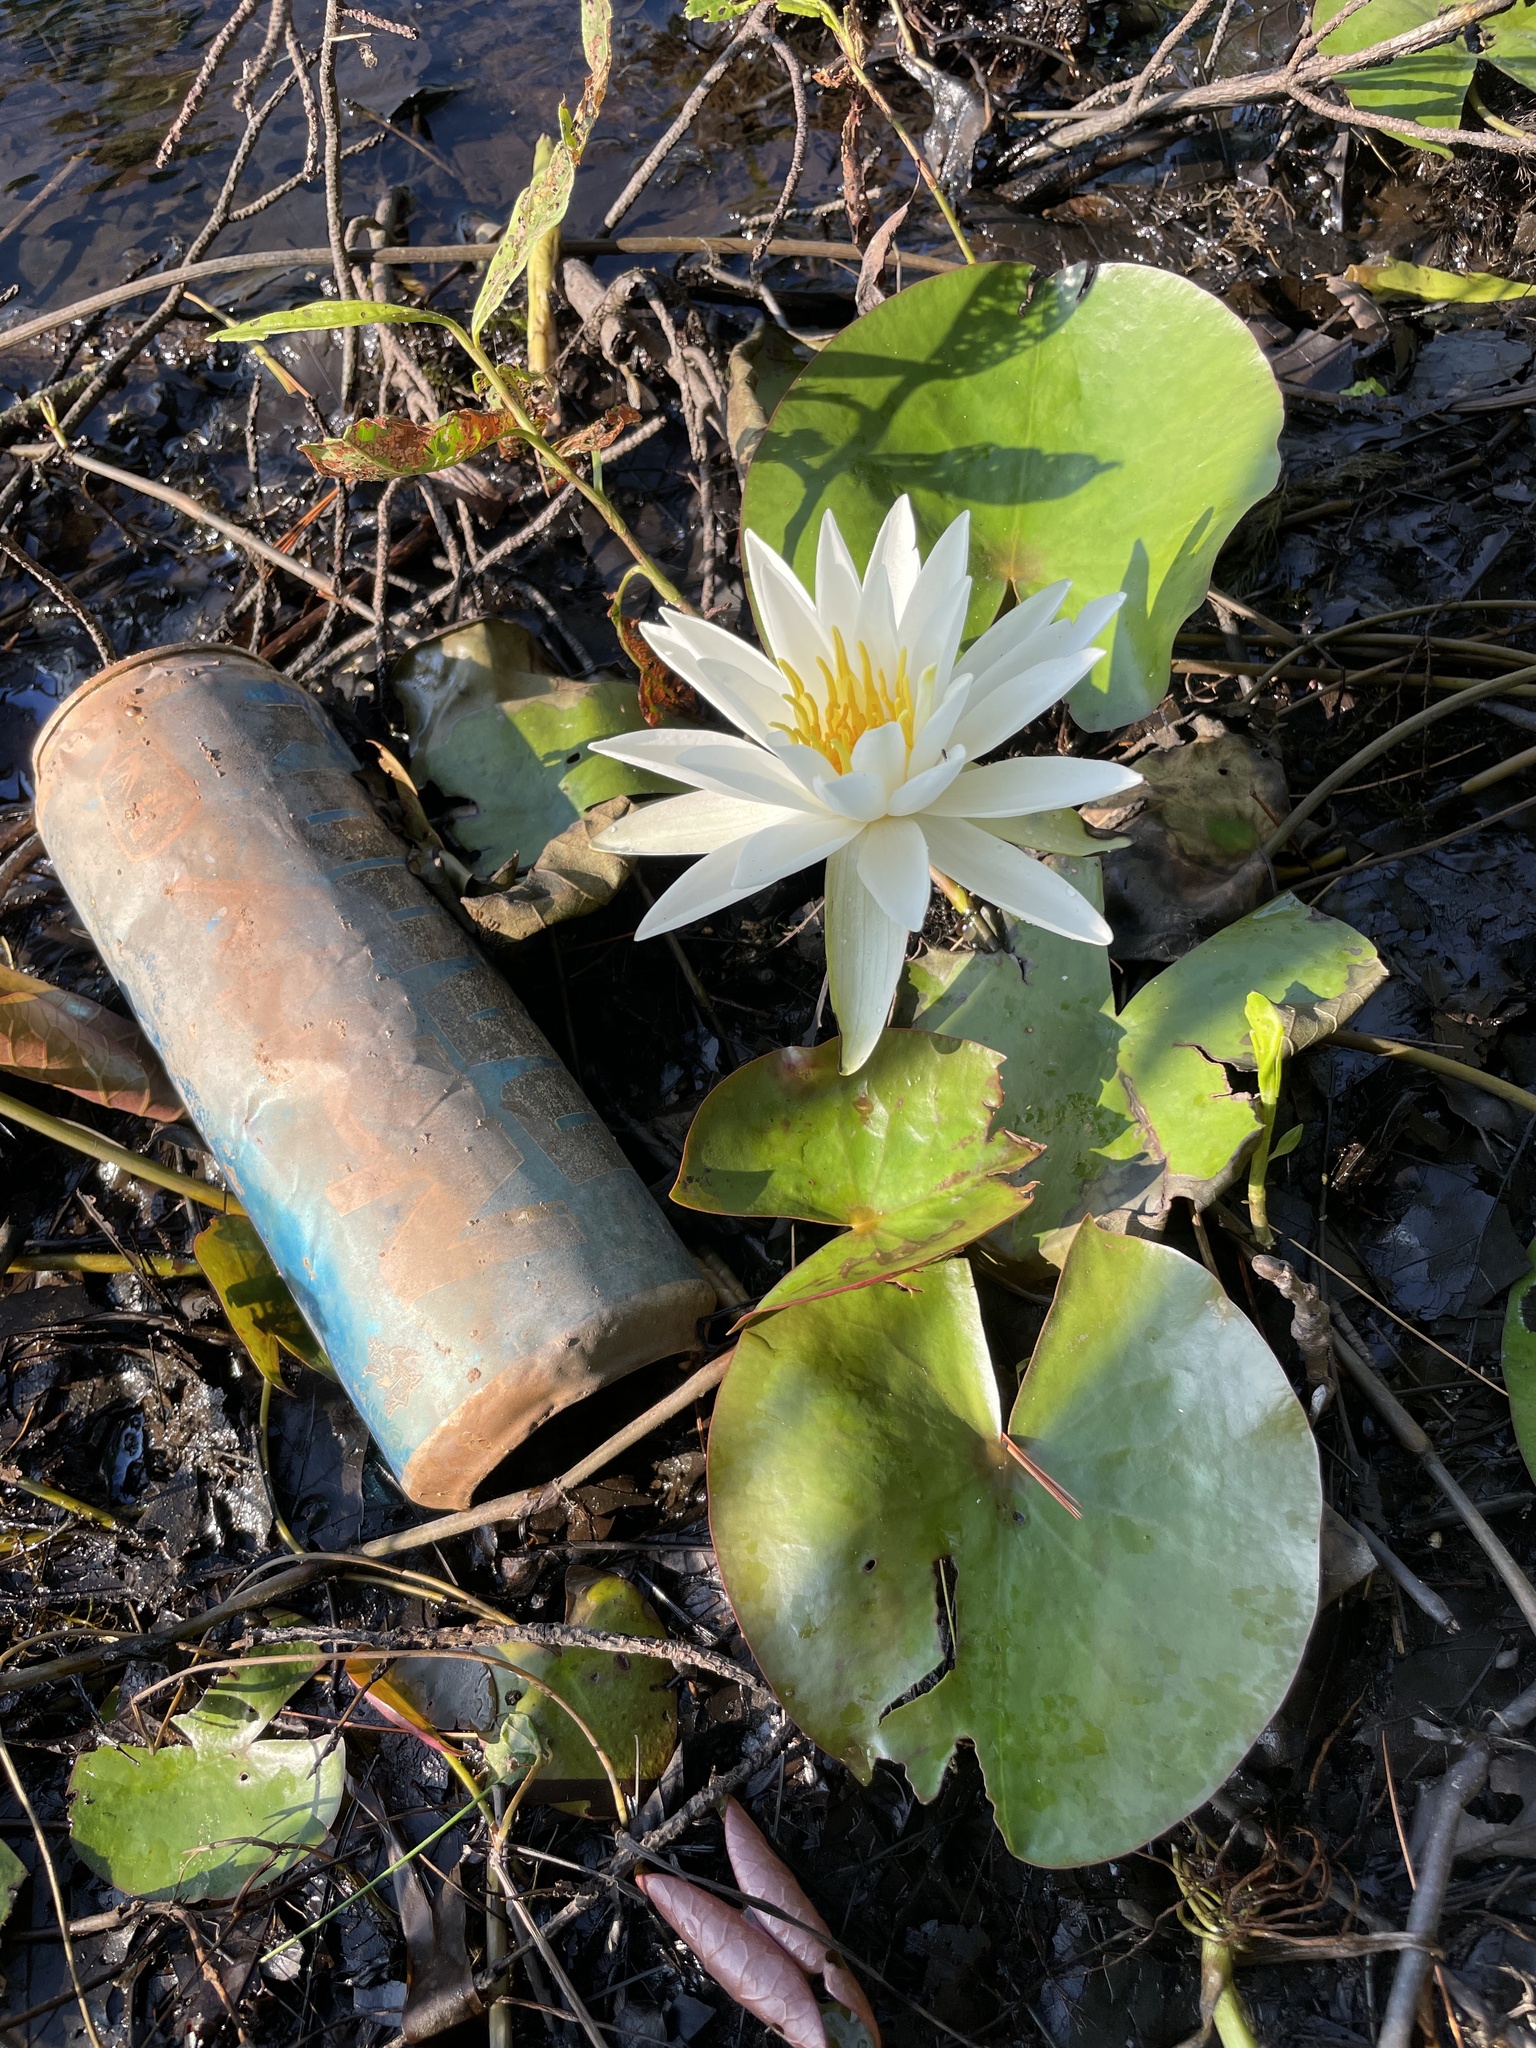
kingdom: Plantae
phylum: Tracheophyta
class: Magnoliopsida
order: Nymphaeales
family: Nymphaeaceae
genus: Nymphaea
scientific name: Nymphaea odorata
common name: Fragrant water-lily
